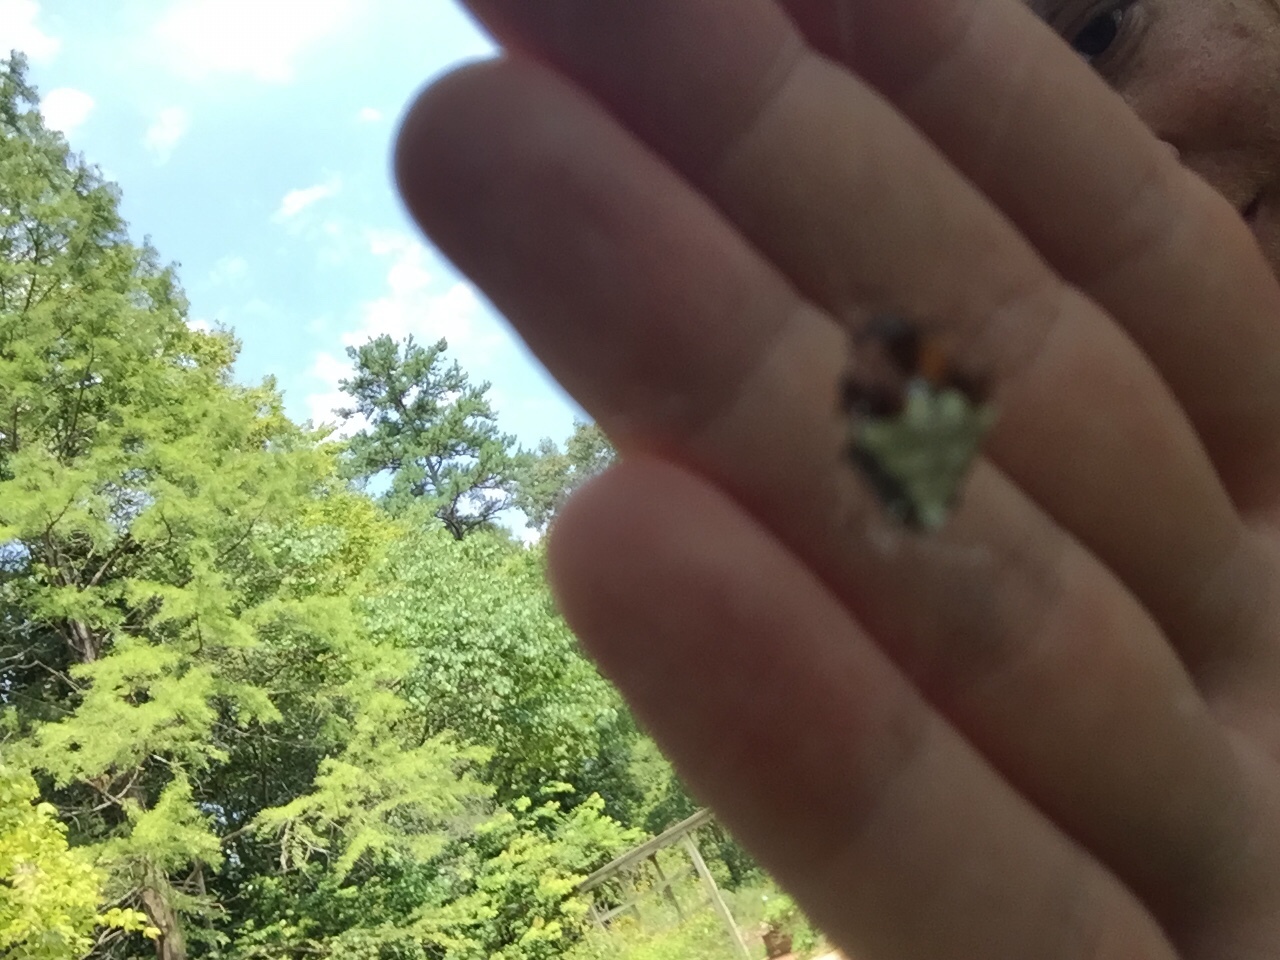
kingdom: Animalia
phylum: Arthropoda
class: Arachnida
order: Araneae
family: Araneidae
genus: Verrucosa
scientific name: Verrucosa arenata
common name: Orb weavers
